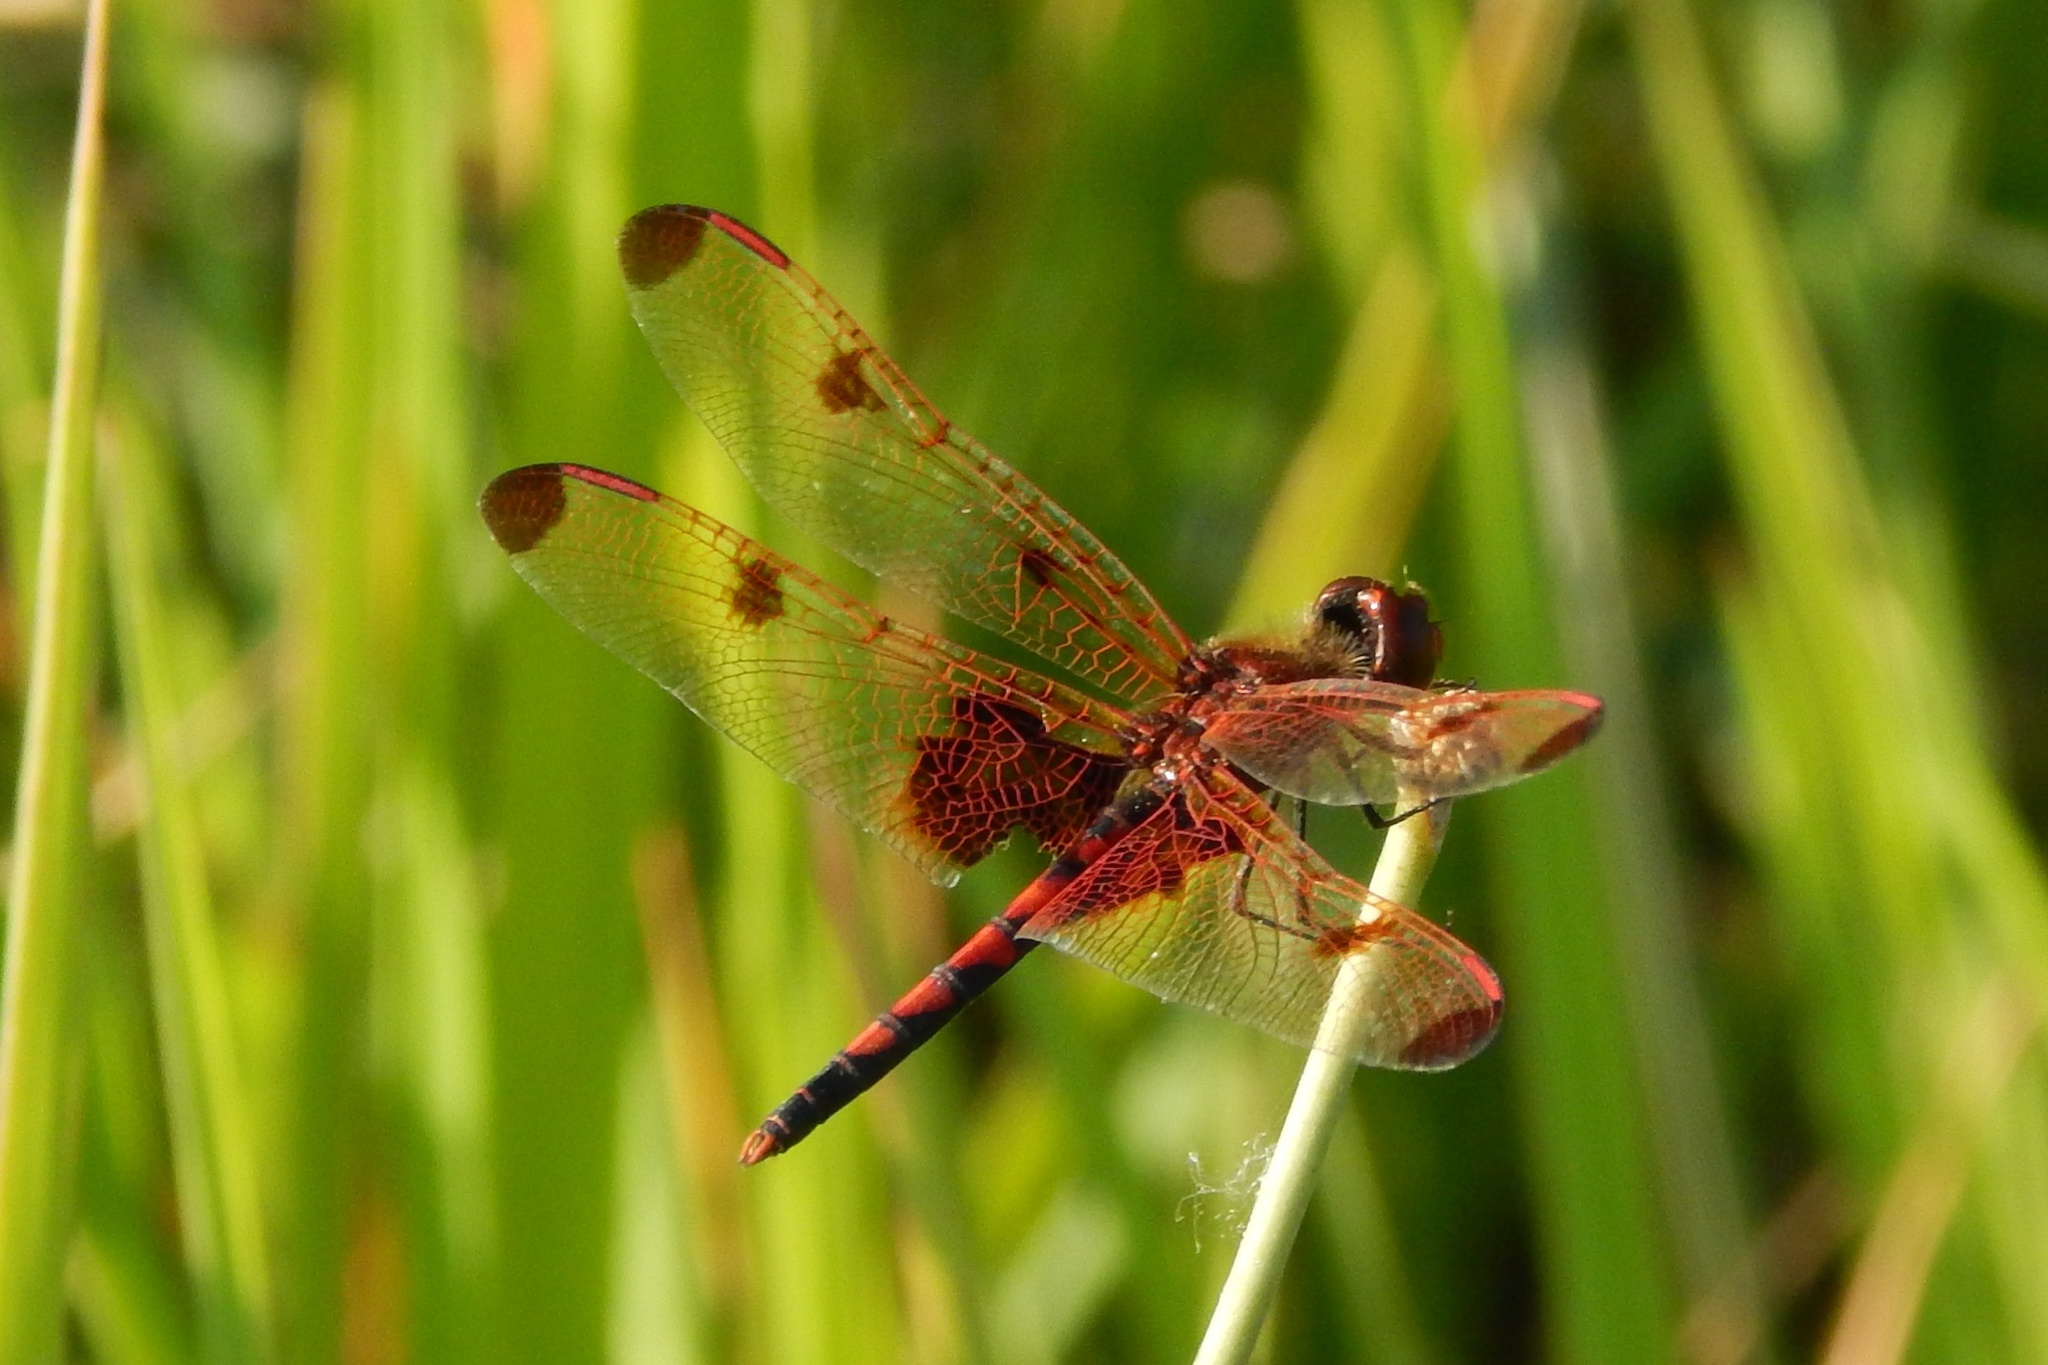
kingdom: Animalia
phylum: Arthropoda
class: Insecta
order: Odonata
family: Libellulidae
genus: Celithemis
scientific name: Celithemis elisa
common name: Calico pennant
